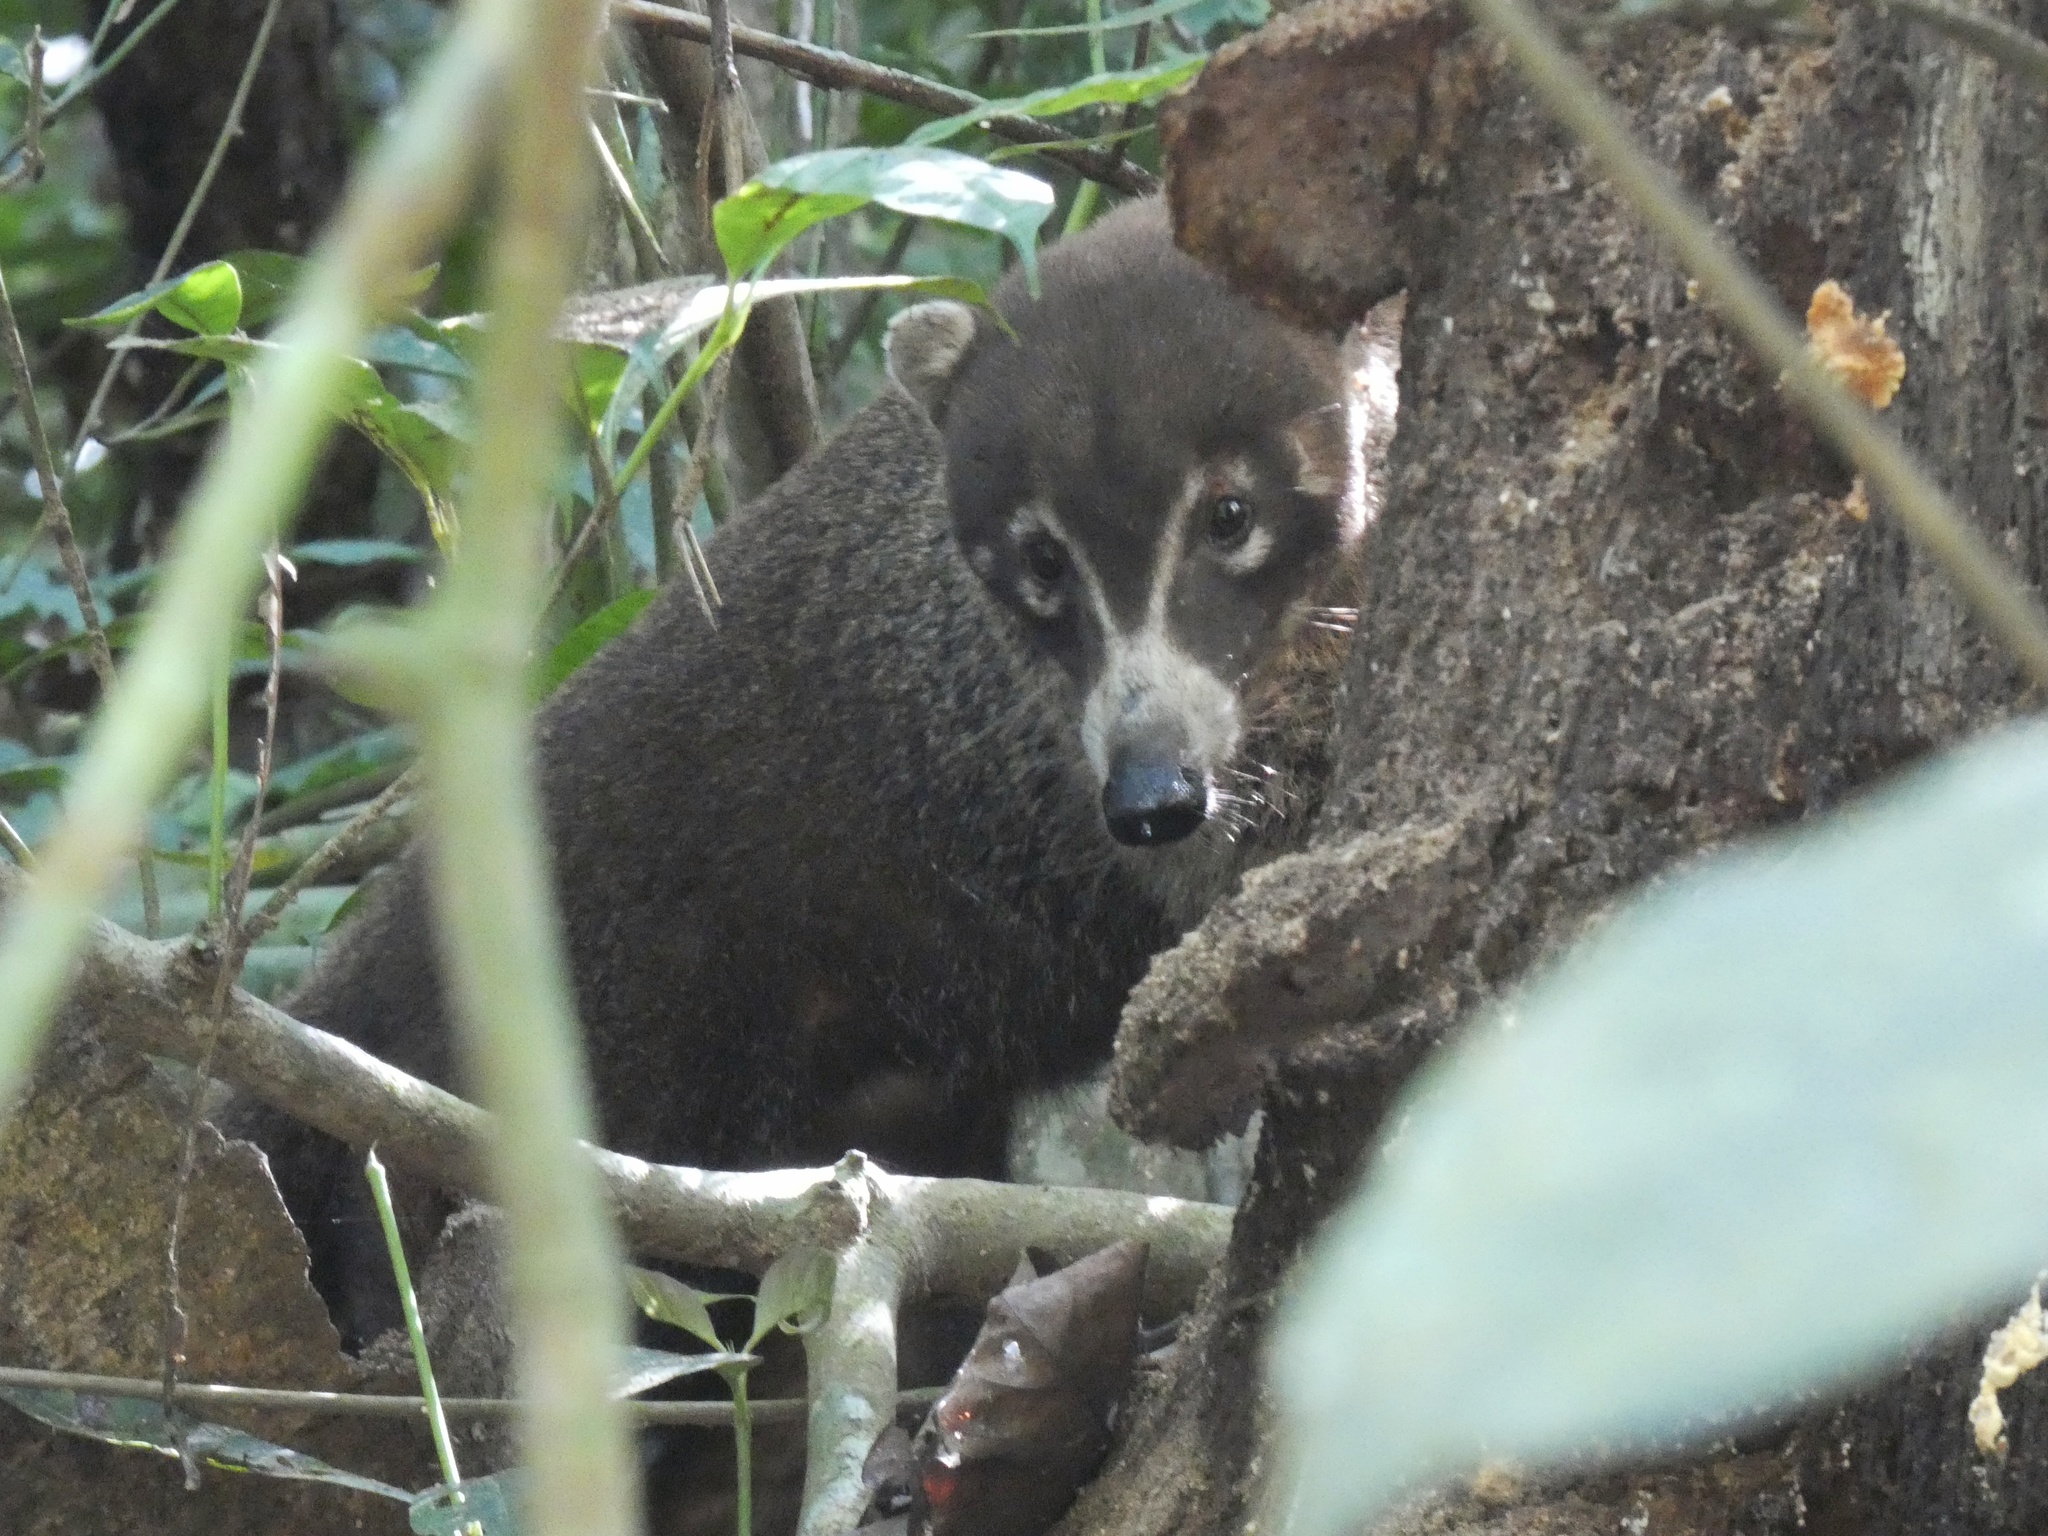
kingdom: Animalia
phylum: Chordata
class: Mammalia
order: Carnivora
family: Procyonidae
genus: Nasua
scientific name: Nasua narica
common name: White-nosed coati
